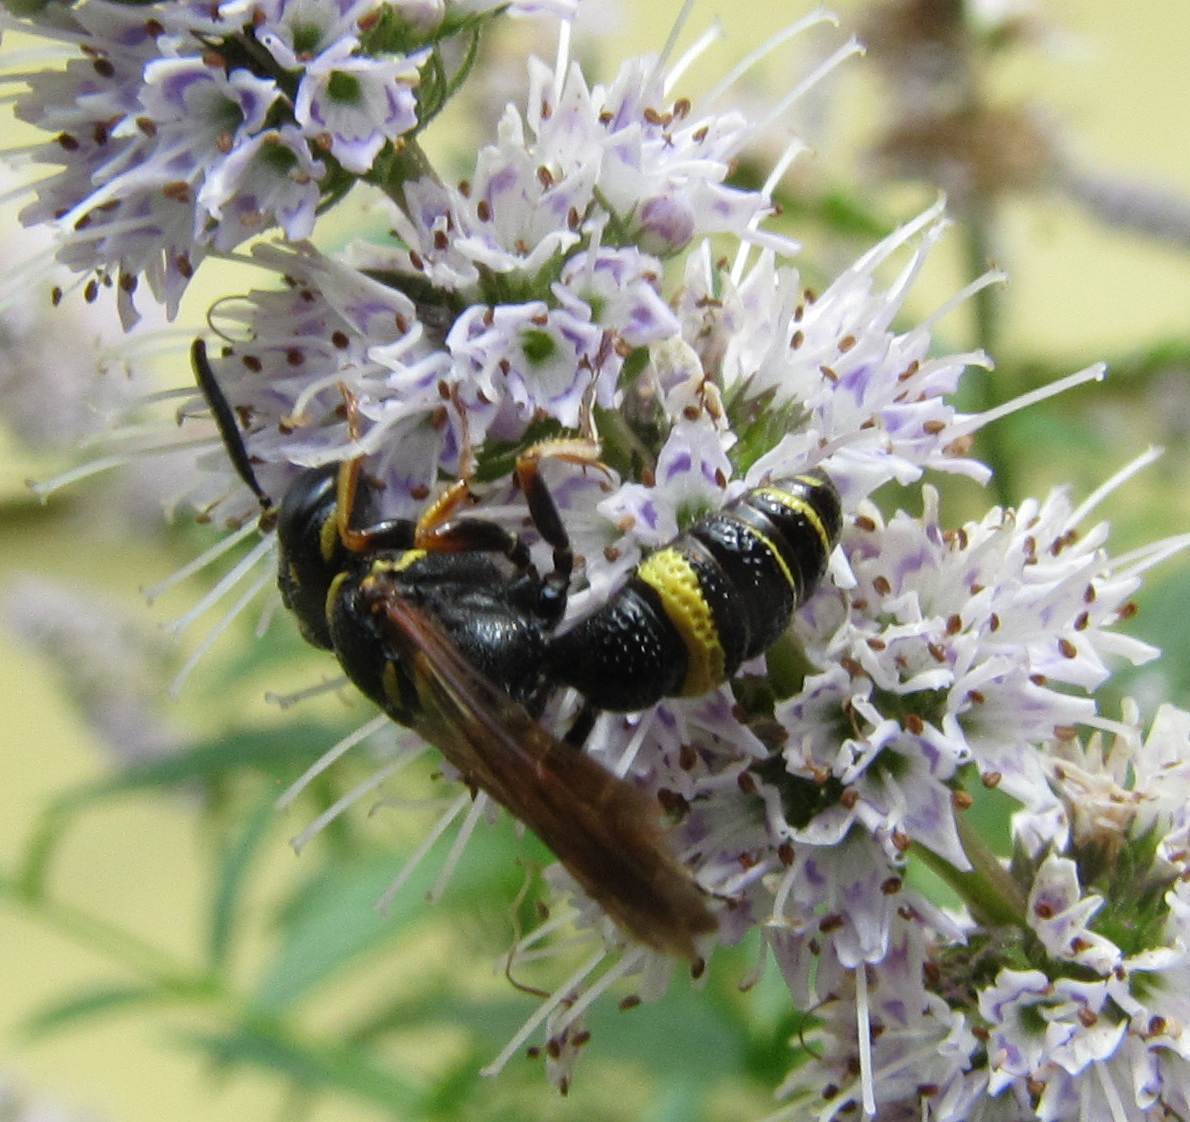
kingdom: Animalia
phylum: Arthropoda
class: Insecta
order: Hymenoptera
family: Crabronidae
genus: Philanthus
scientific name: Philanthus gibbosus
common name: Humped beewolf
